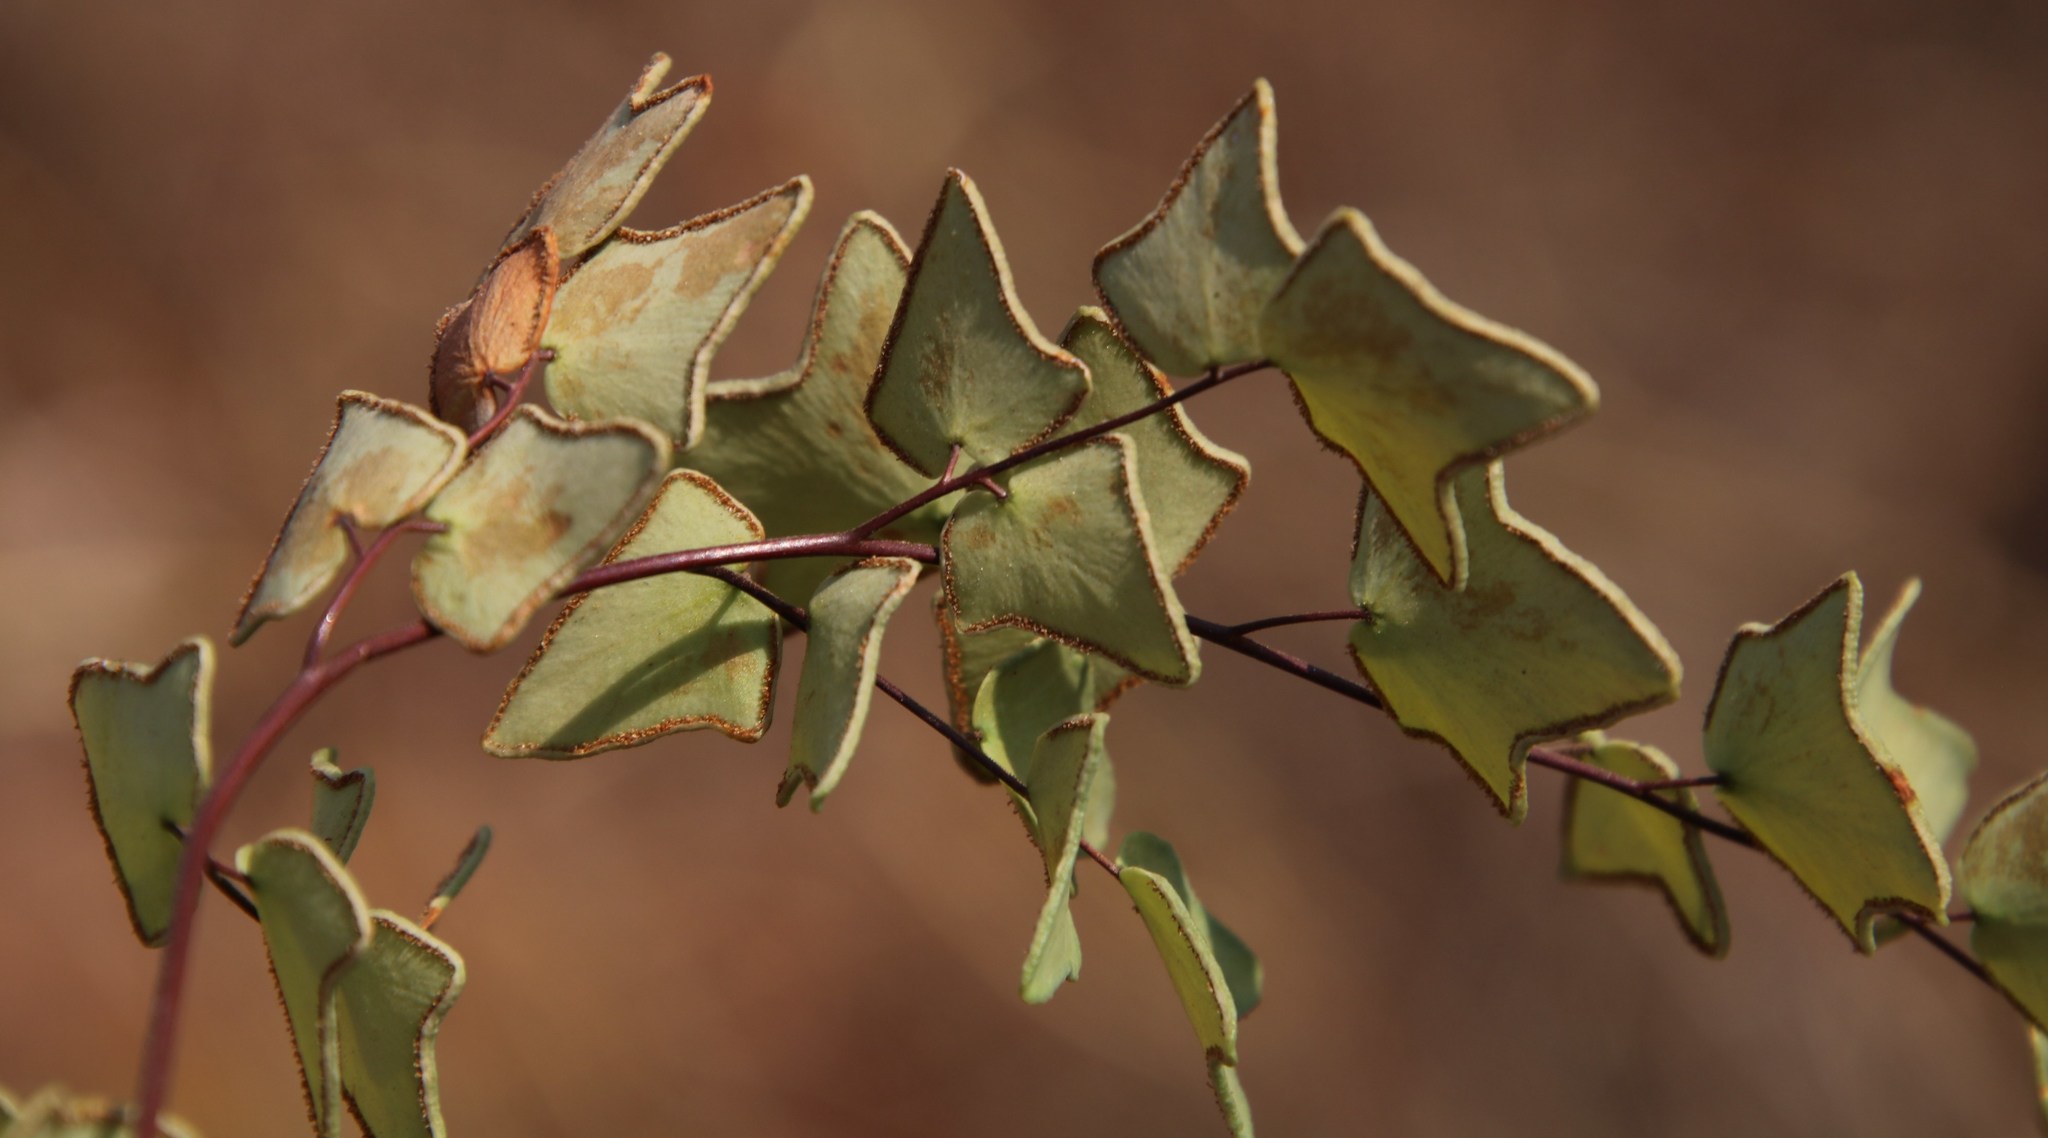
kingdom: Plantae
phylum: Tracheophyta
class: Polypodiopsida
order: Polypodiales
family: Pteridaceae
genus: Pellaea
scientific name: Pellaea calomelanos
